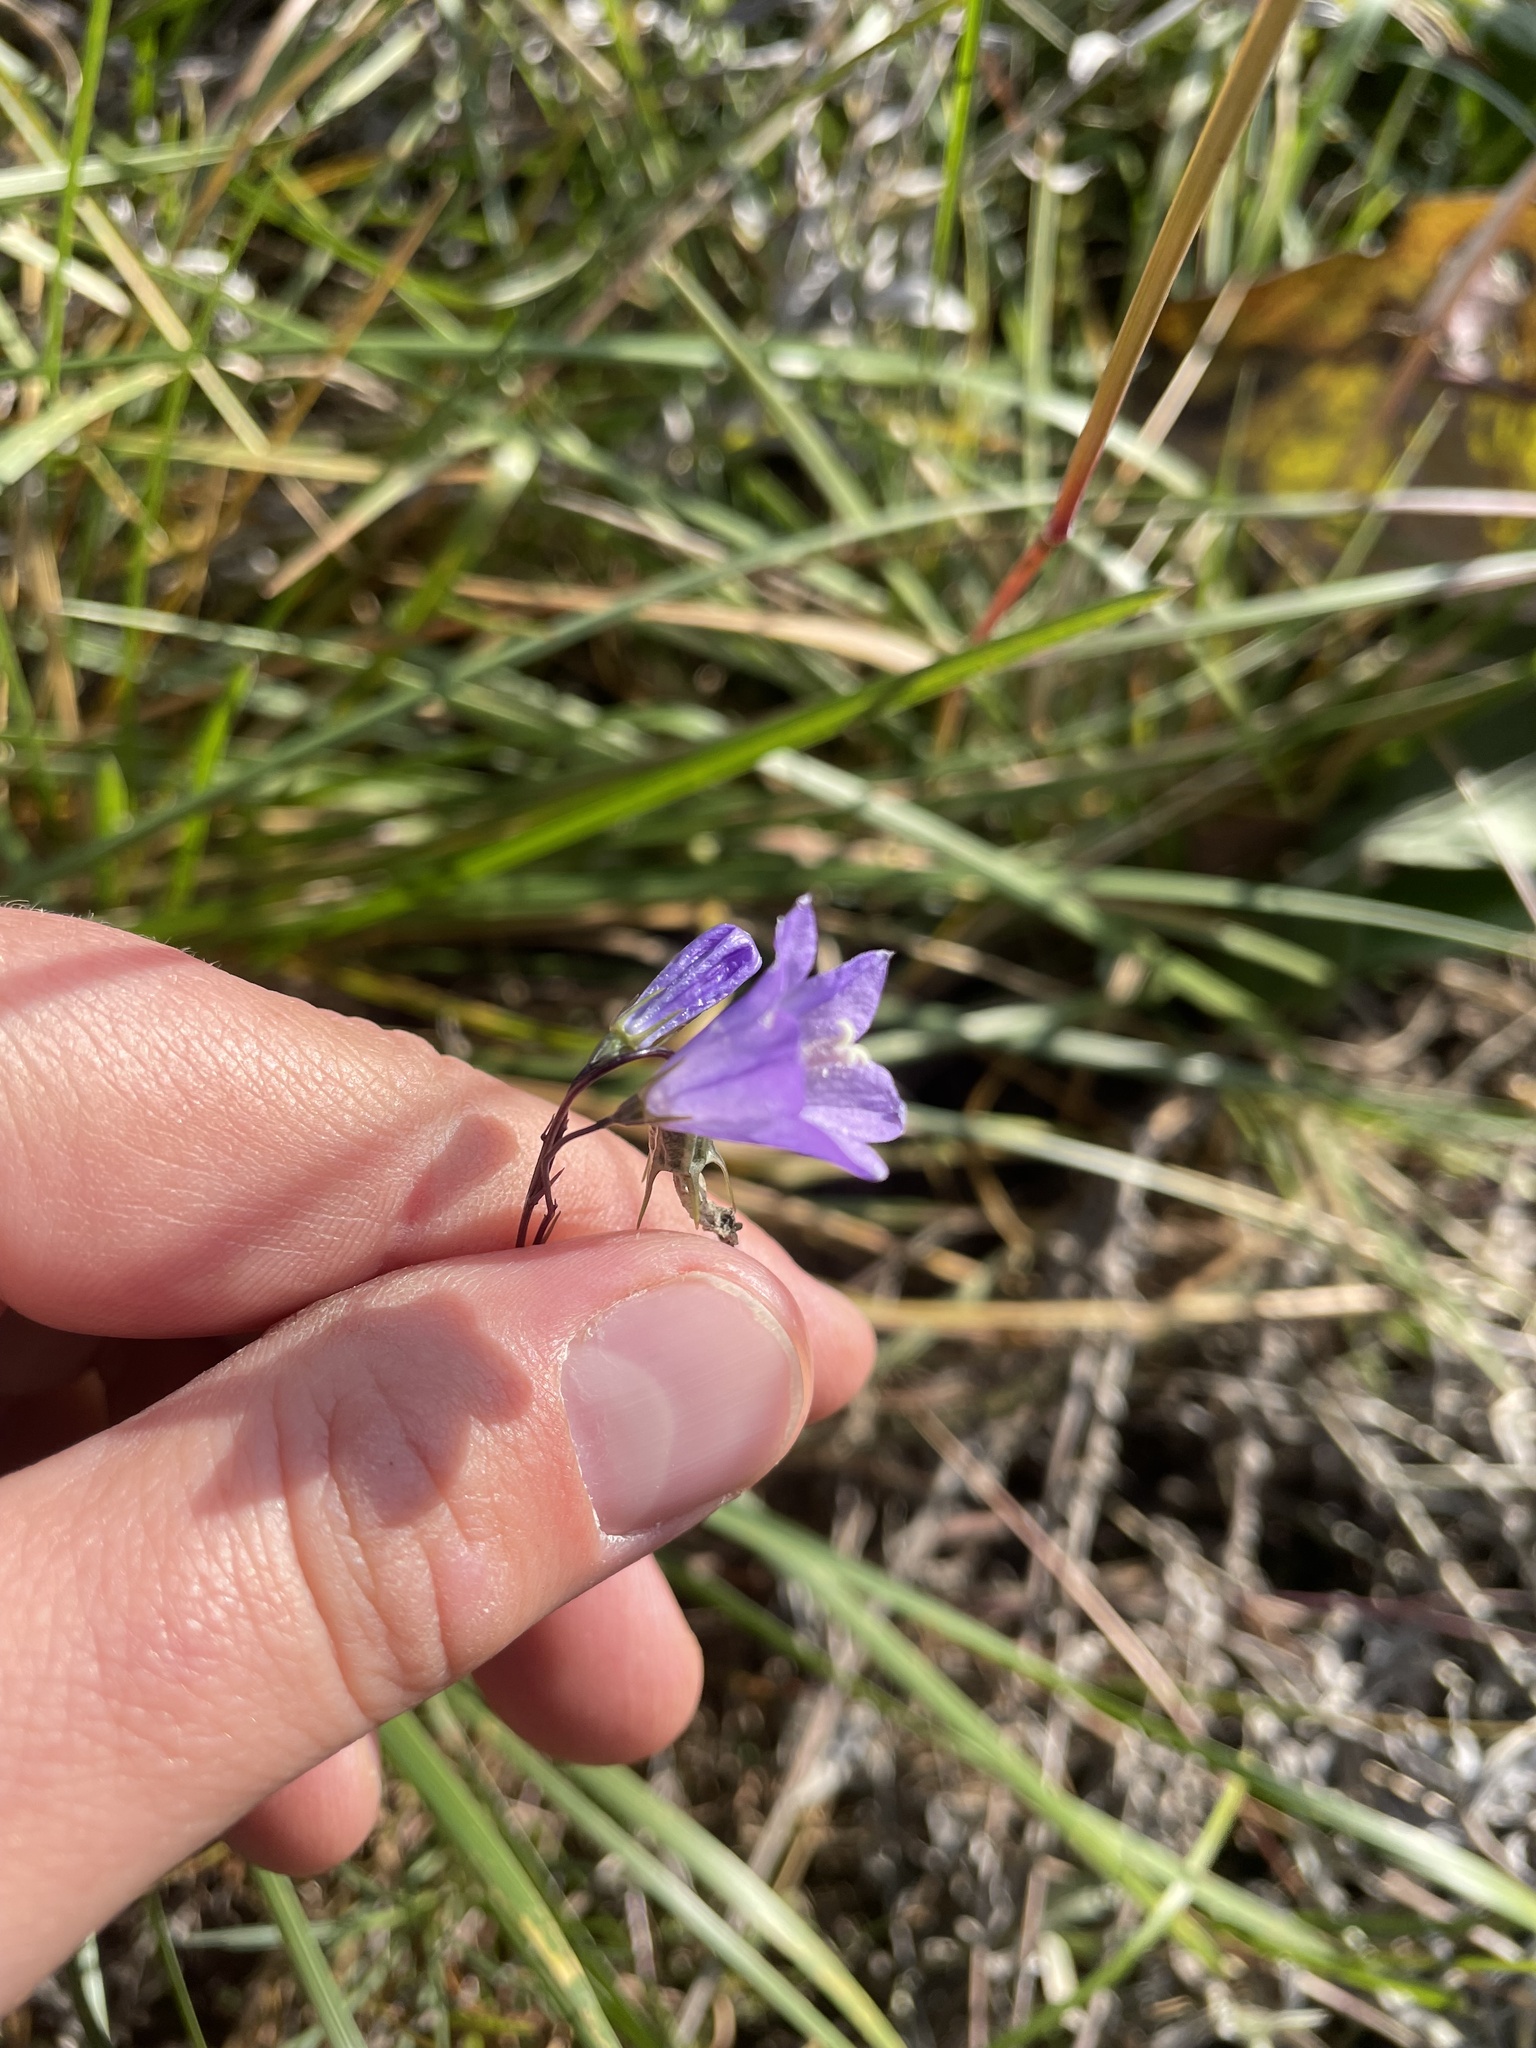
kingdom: Plantae
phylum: Tracheophyta
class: Magnoliopsida
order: Asterales
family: Campanulaceae
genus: Campanula
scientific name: Campanula alaskana
